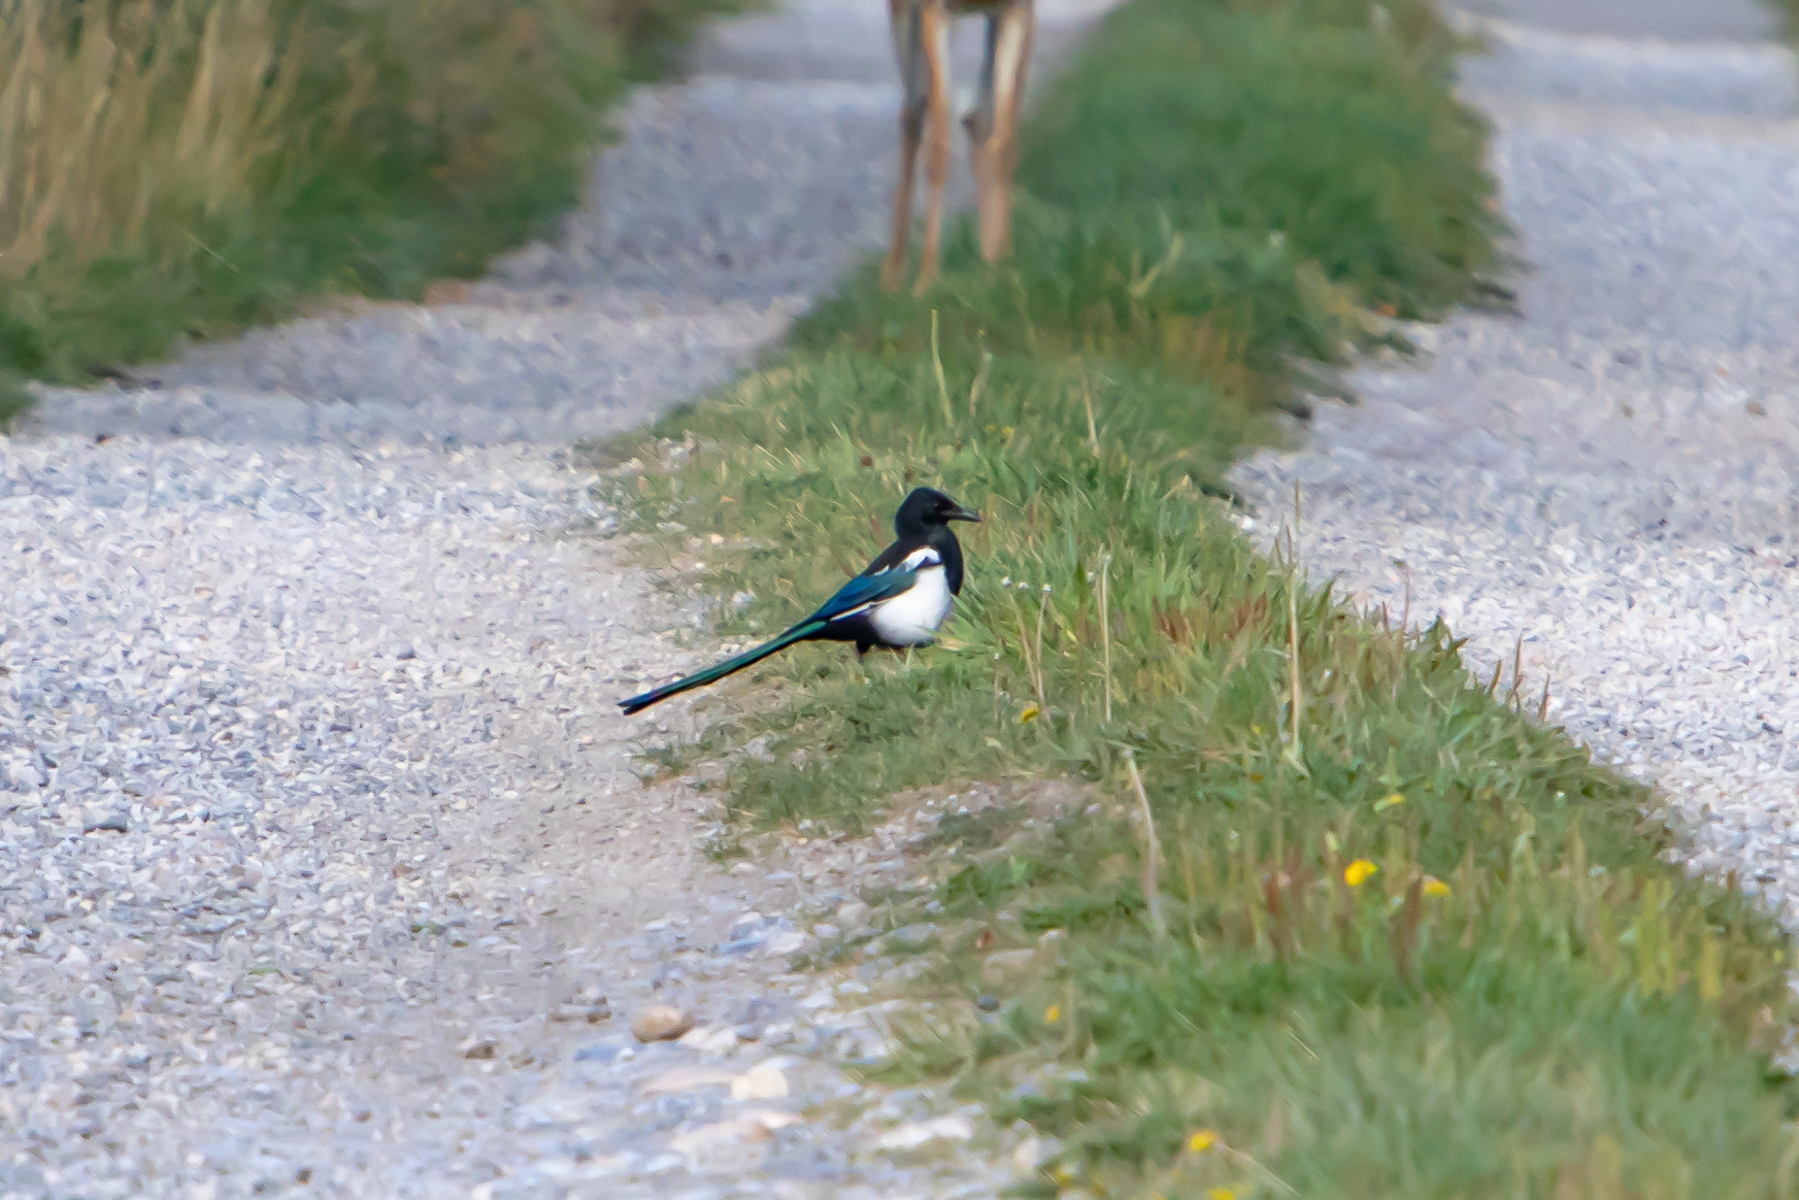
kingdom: Animalia
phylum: Chordata
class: Aves
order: Passeriformes
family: Corvidae
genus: Pica
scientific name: Pica hudsonia
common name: Black-billed magpie
